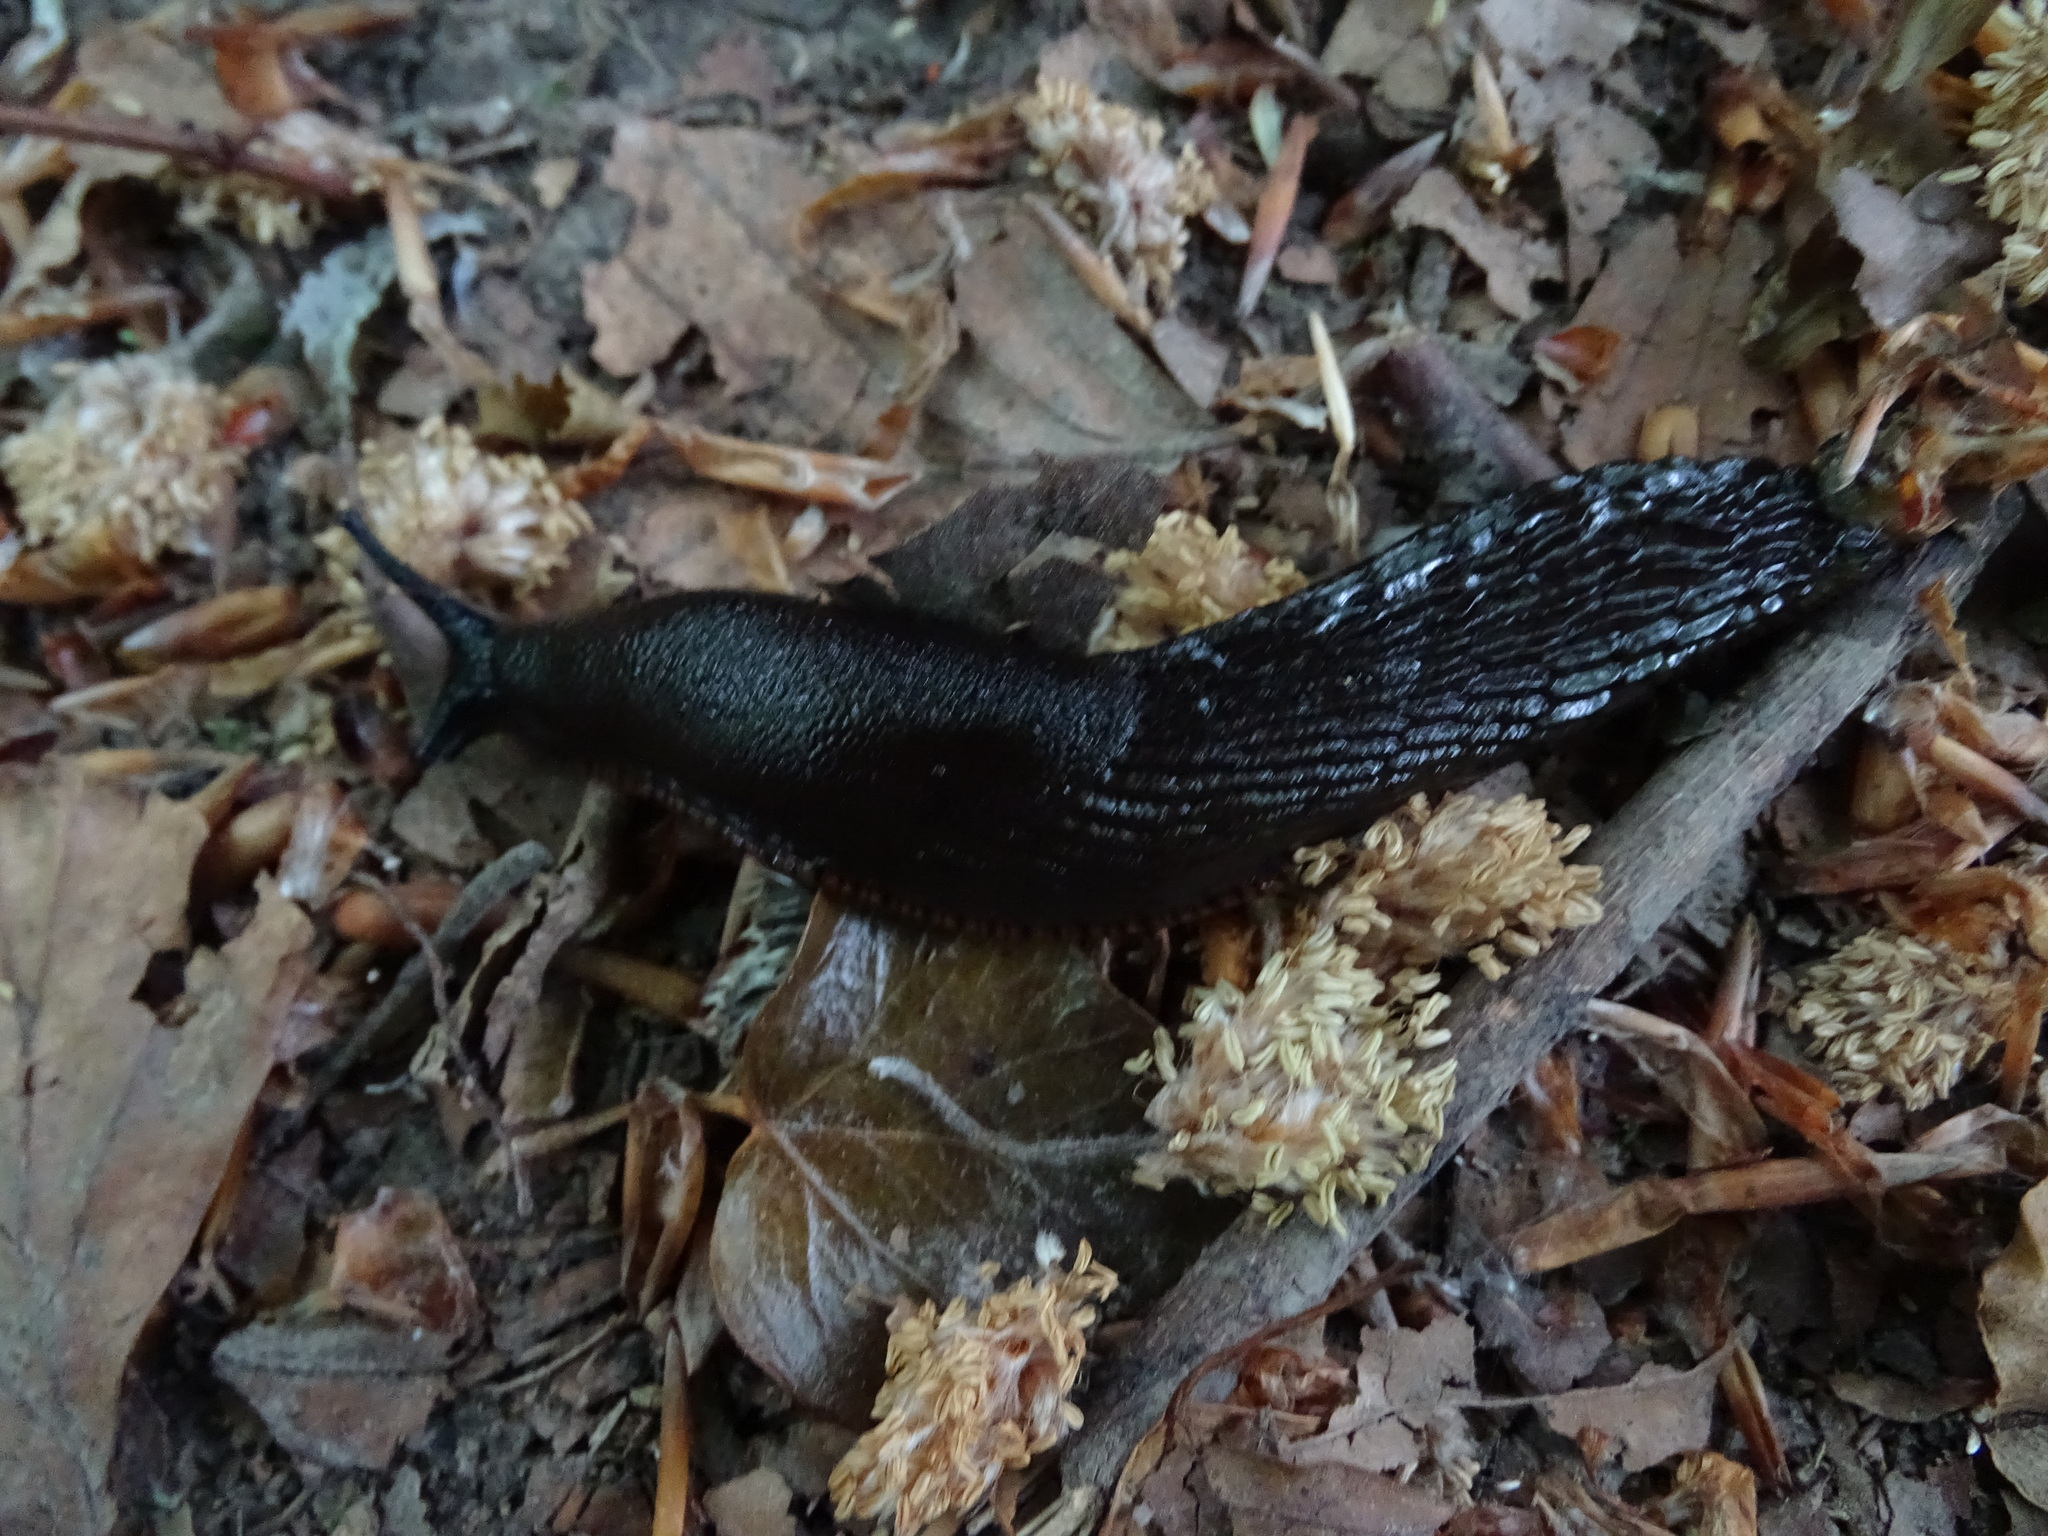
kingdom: Animalia
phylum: Mollusca
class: Gastropoda
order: Stylommatophora
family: Arionidae
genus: Arion
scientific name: Arion
